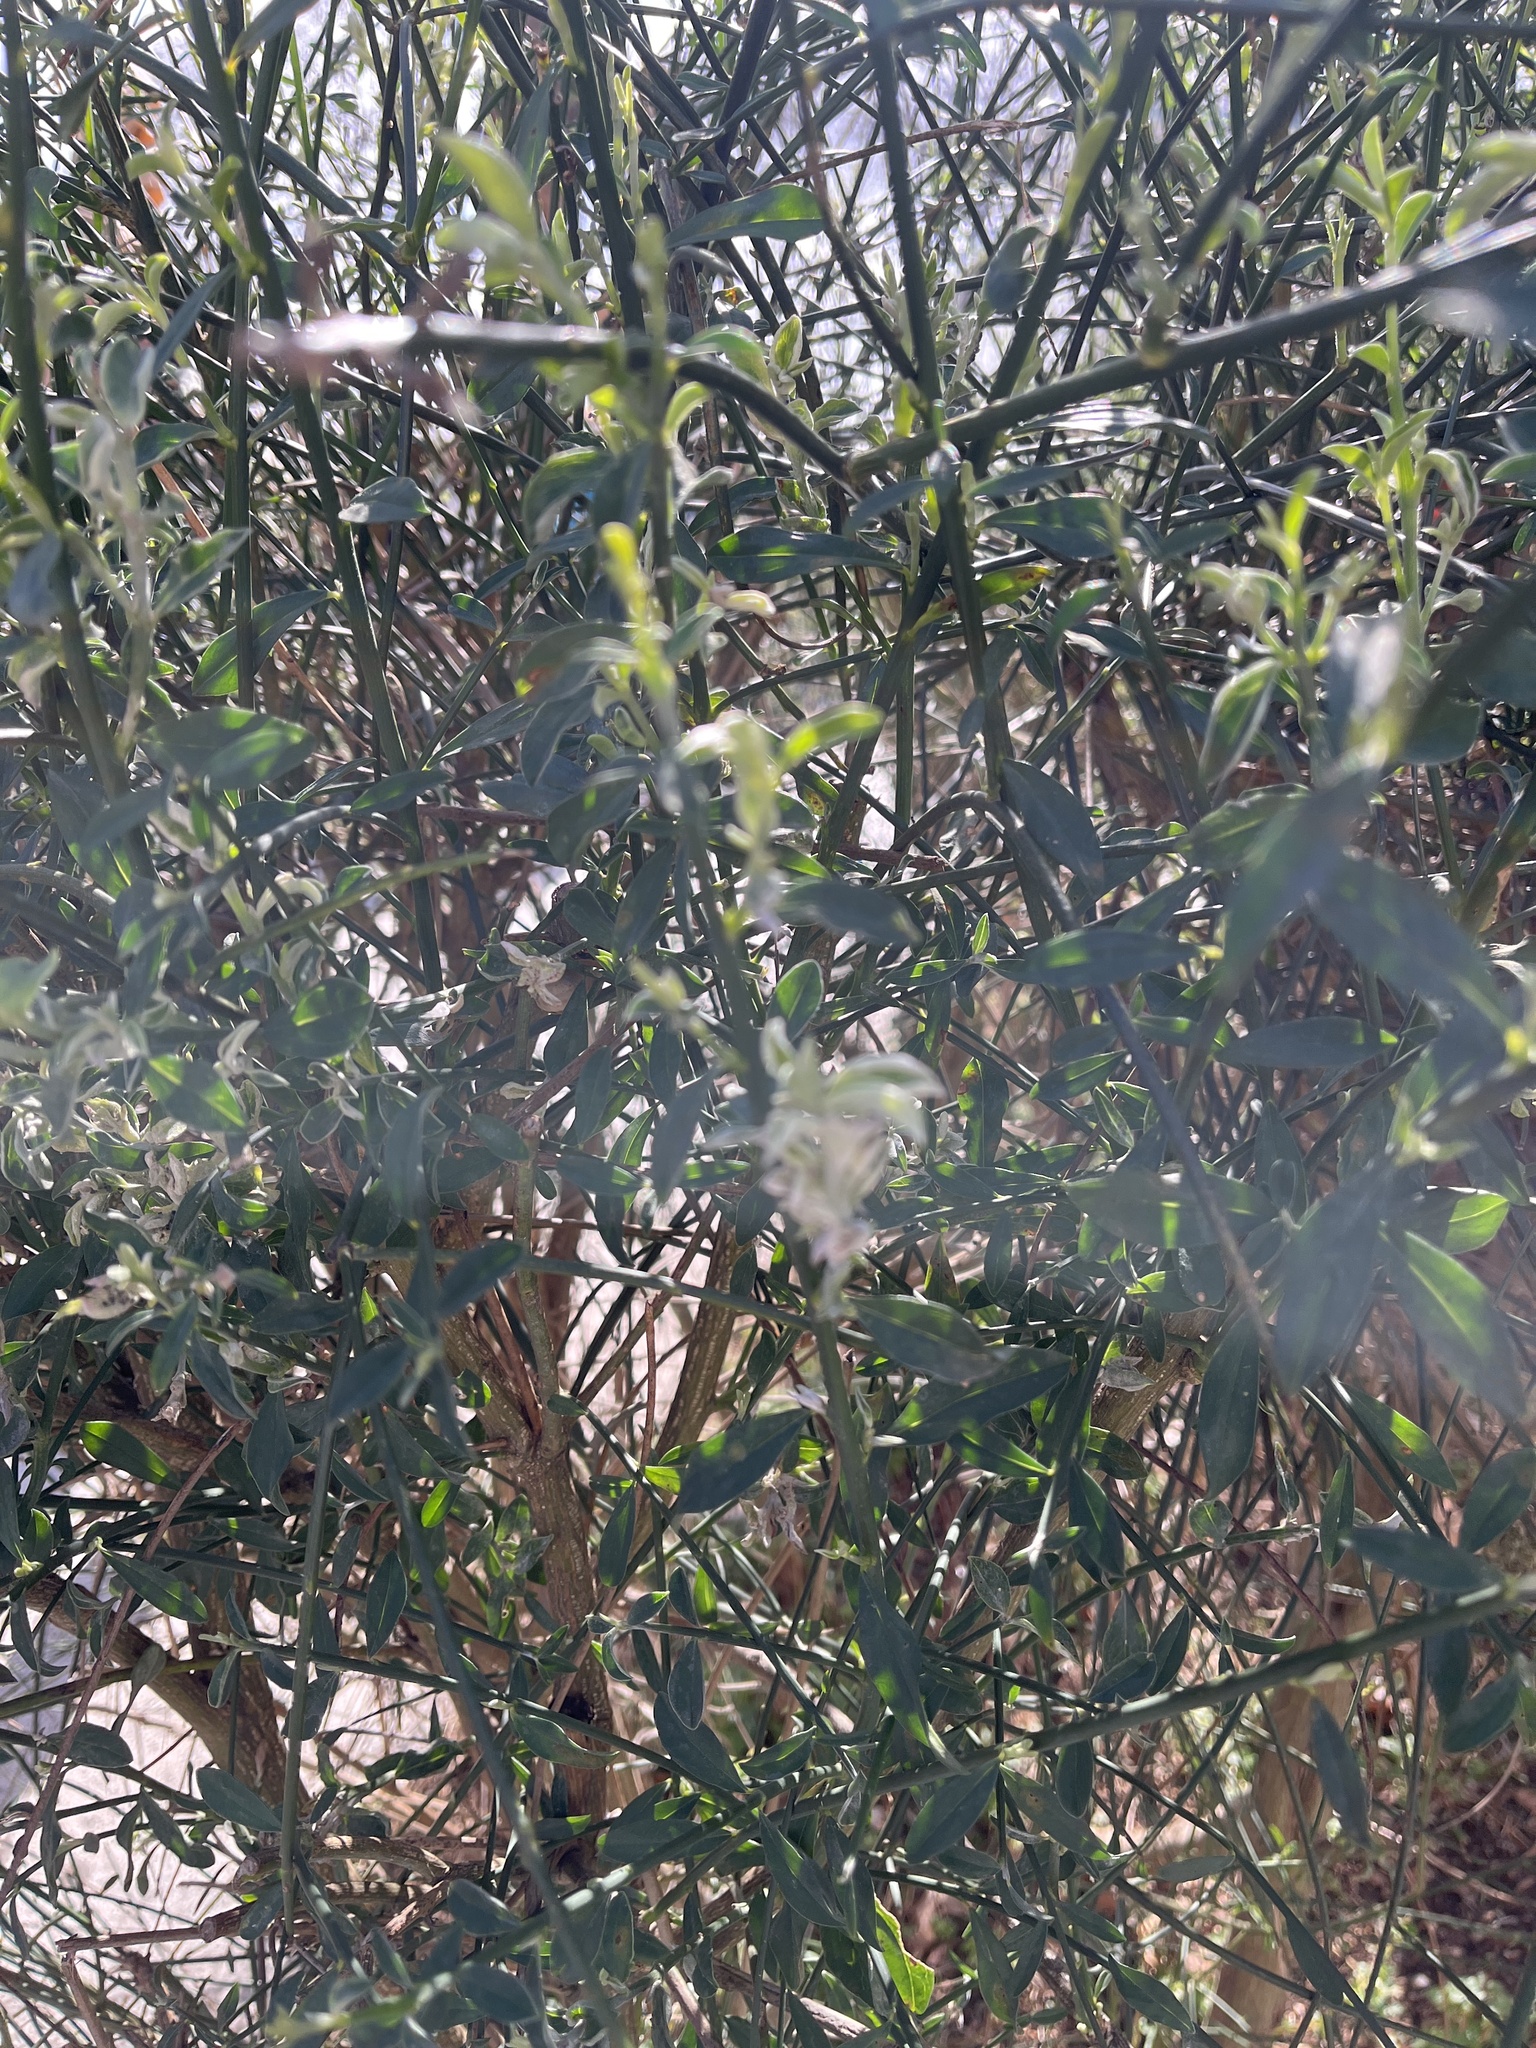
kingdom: Plantae
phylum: Tracheophyta
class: Magnoliopsida
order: Fabales
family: Fabaceae
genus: Spartium
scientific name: Spartium junceum
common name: Spanish broom
